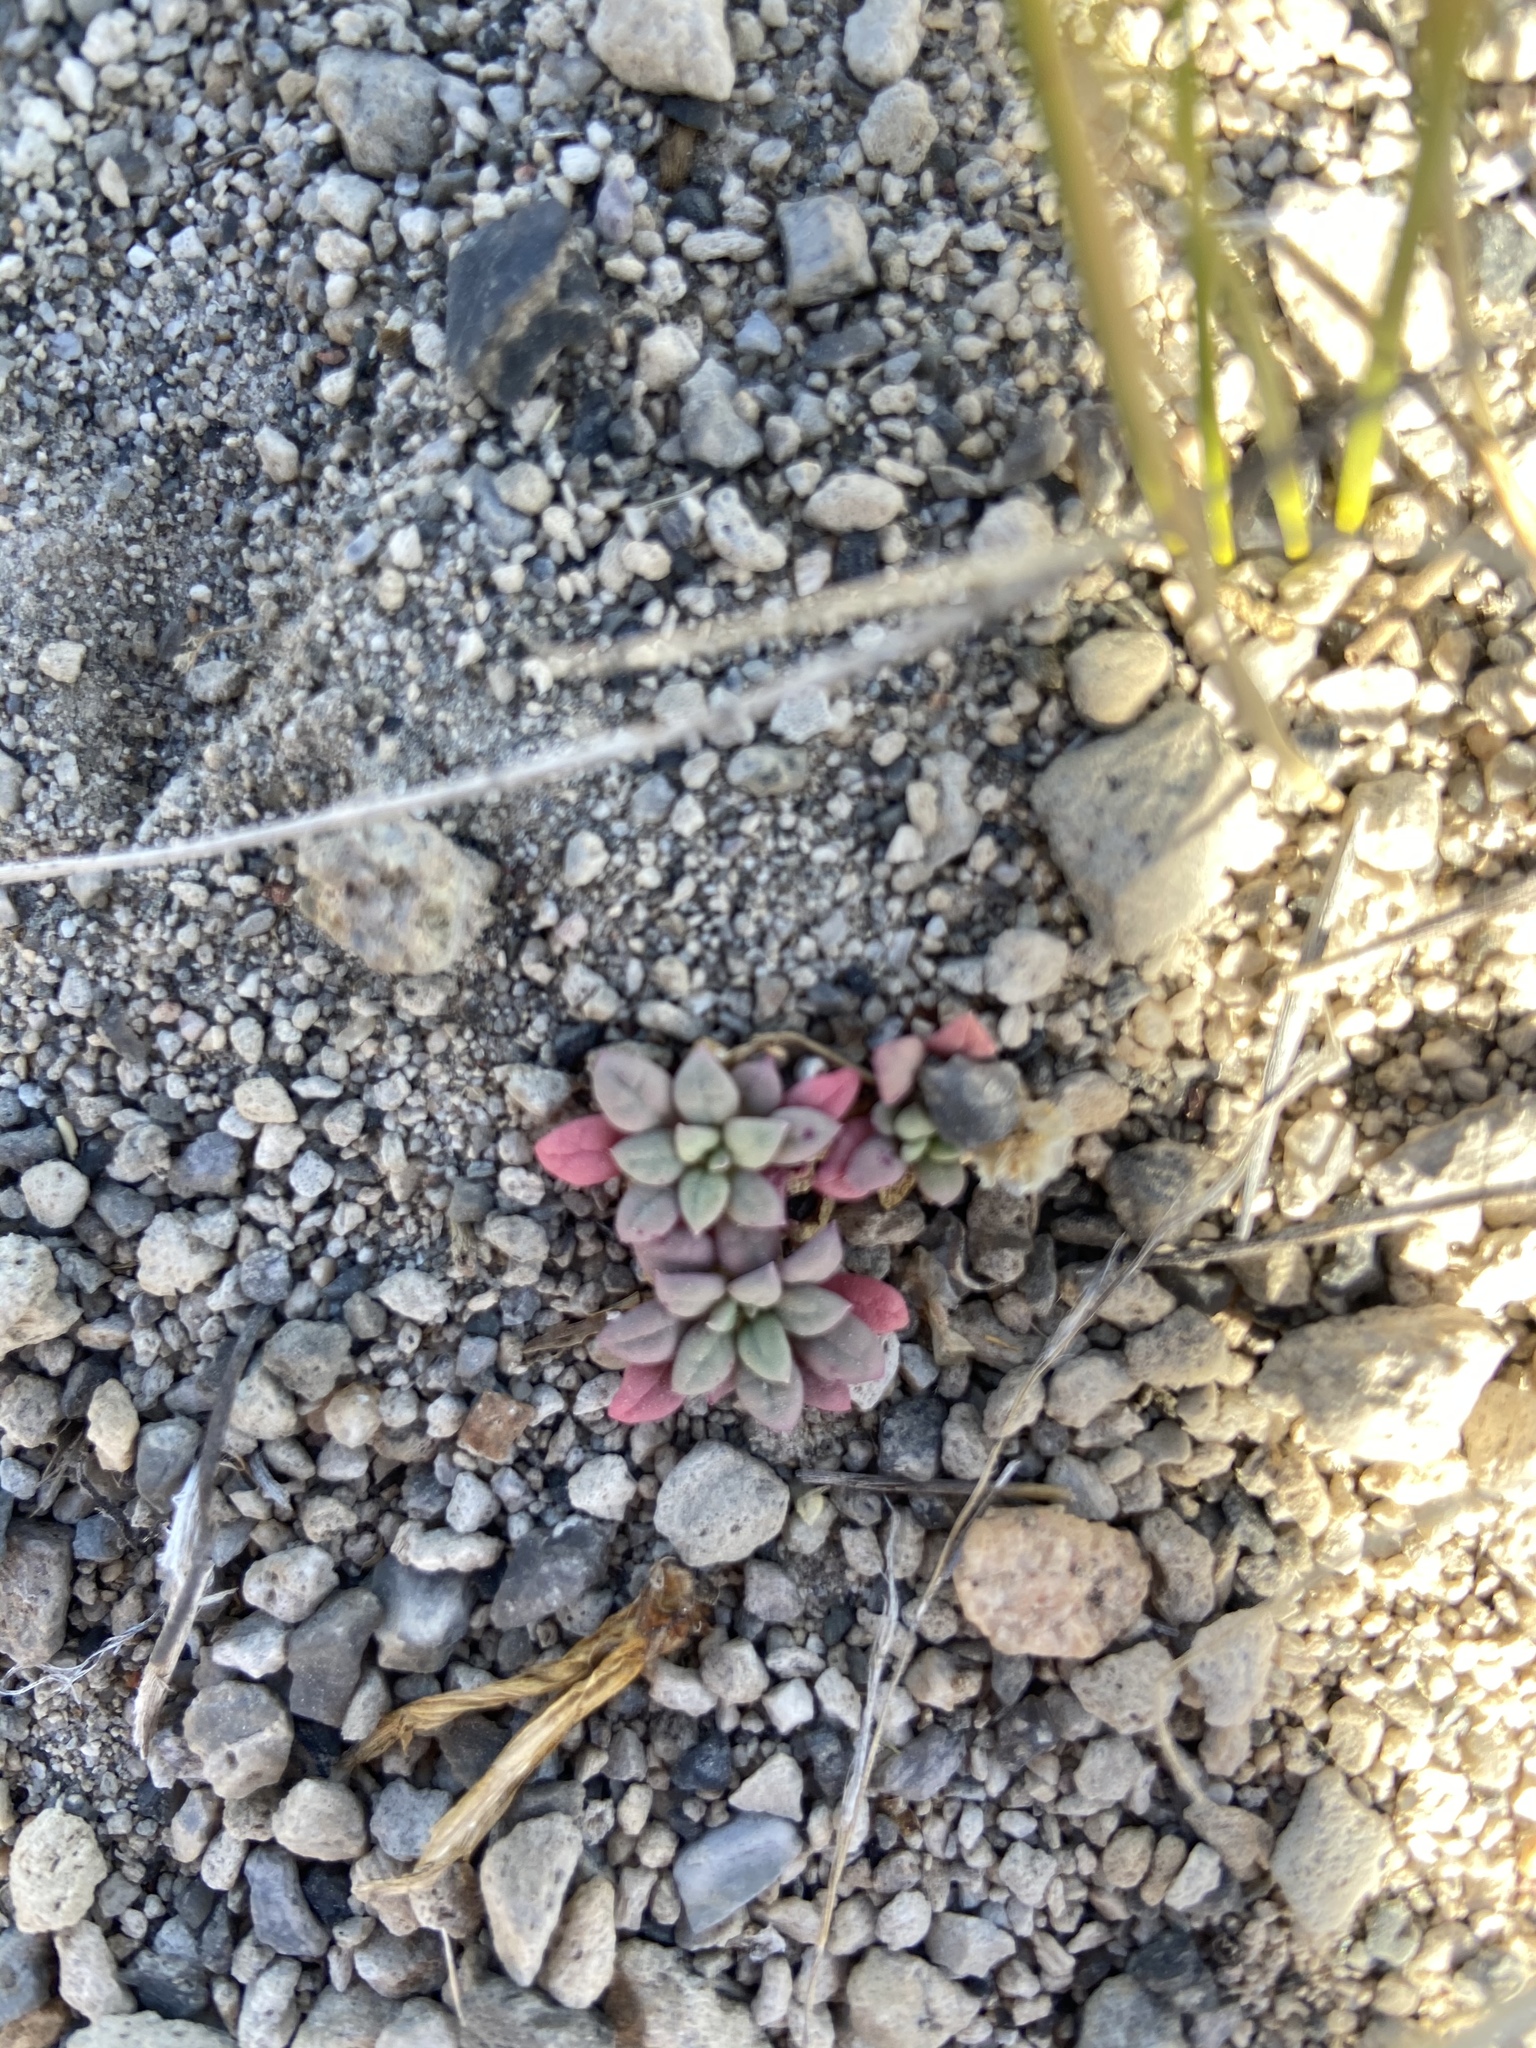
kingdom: Plantae
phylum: Tracheophyta
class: Magnoliopsida
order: Caryophyllales
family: Montiaceae
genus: Calyptridium
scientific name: Calyptridium umbellatum
